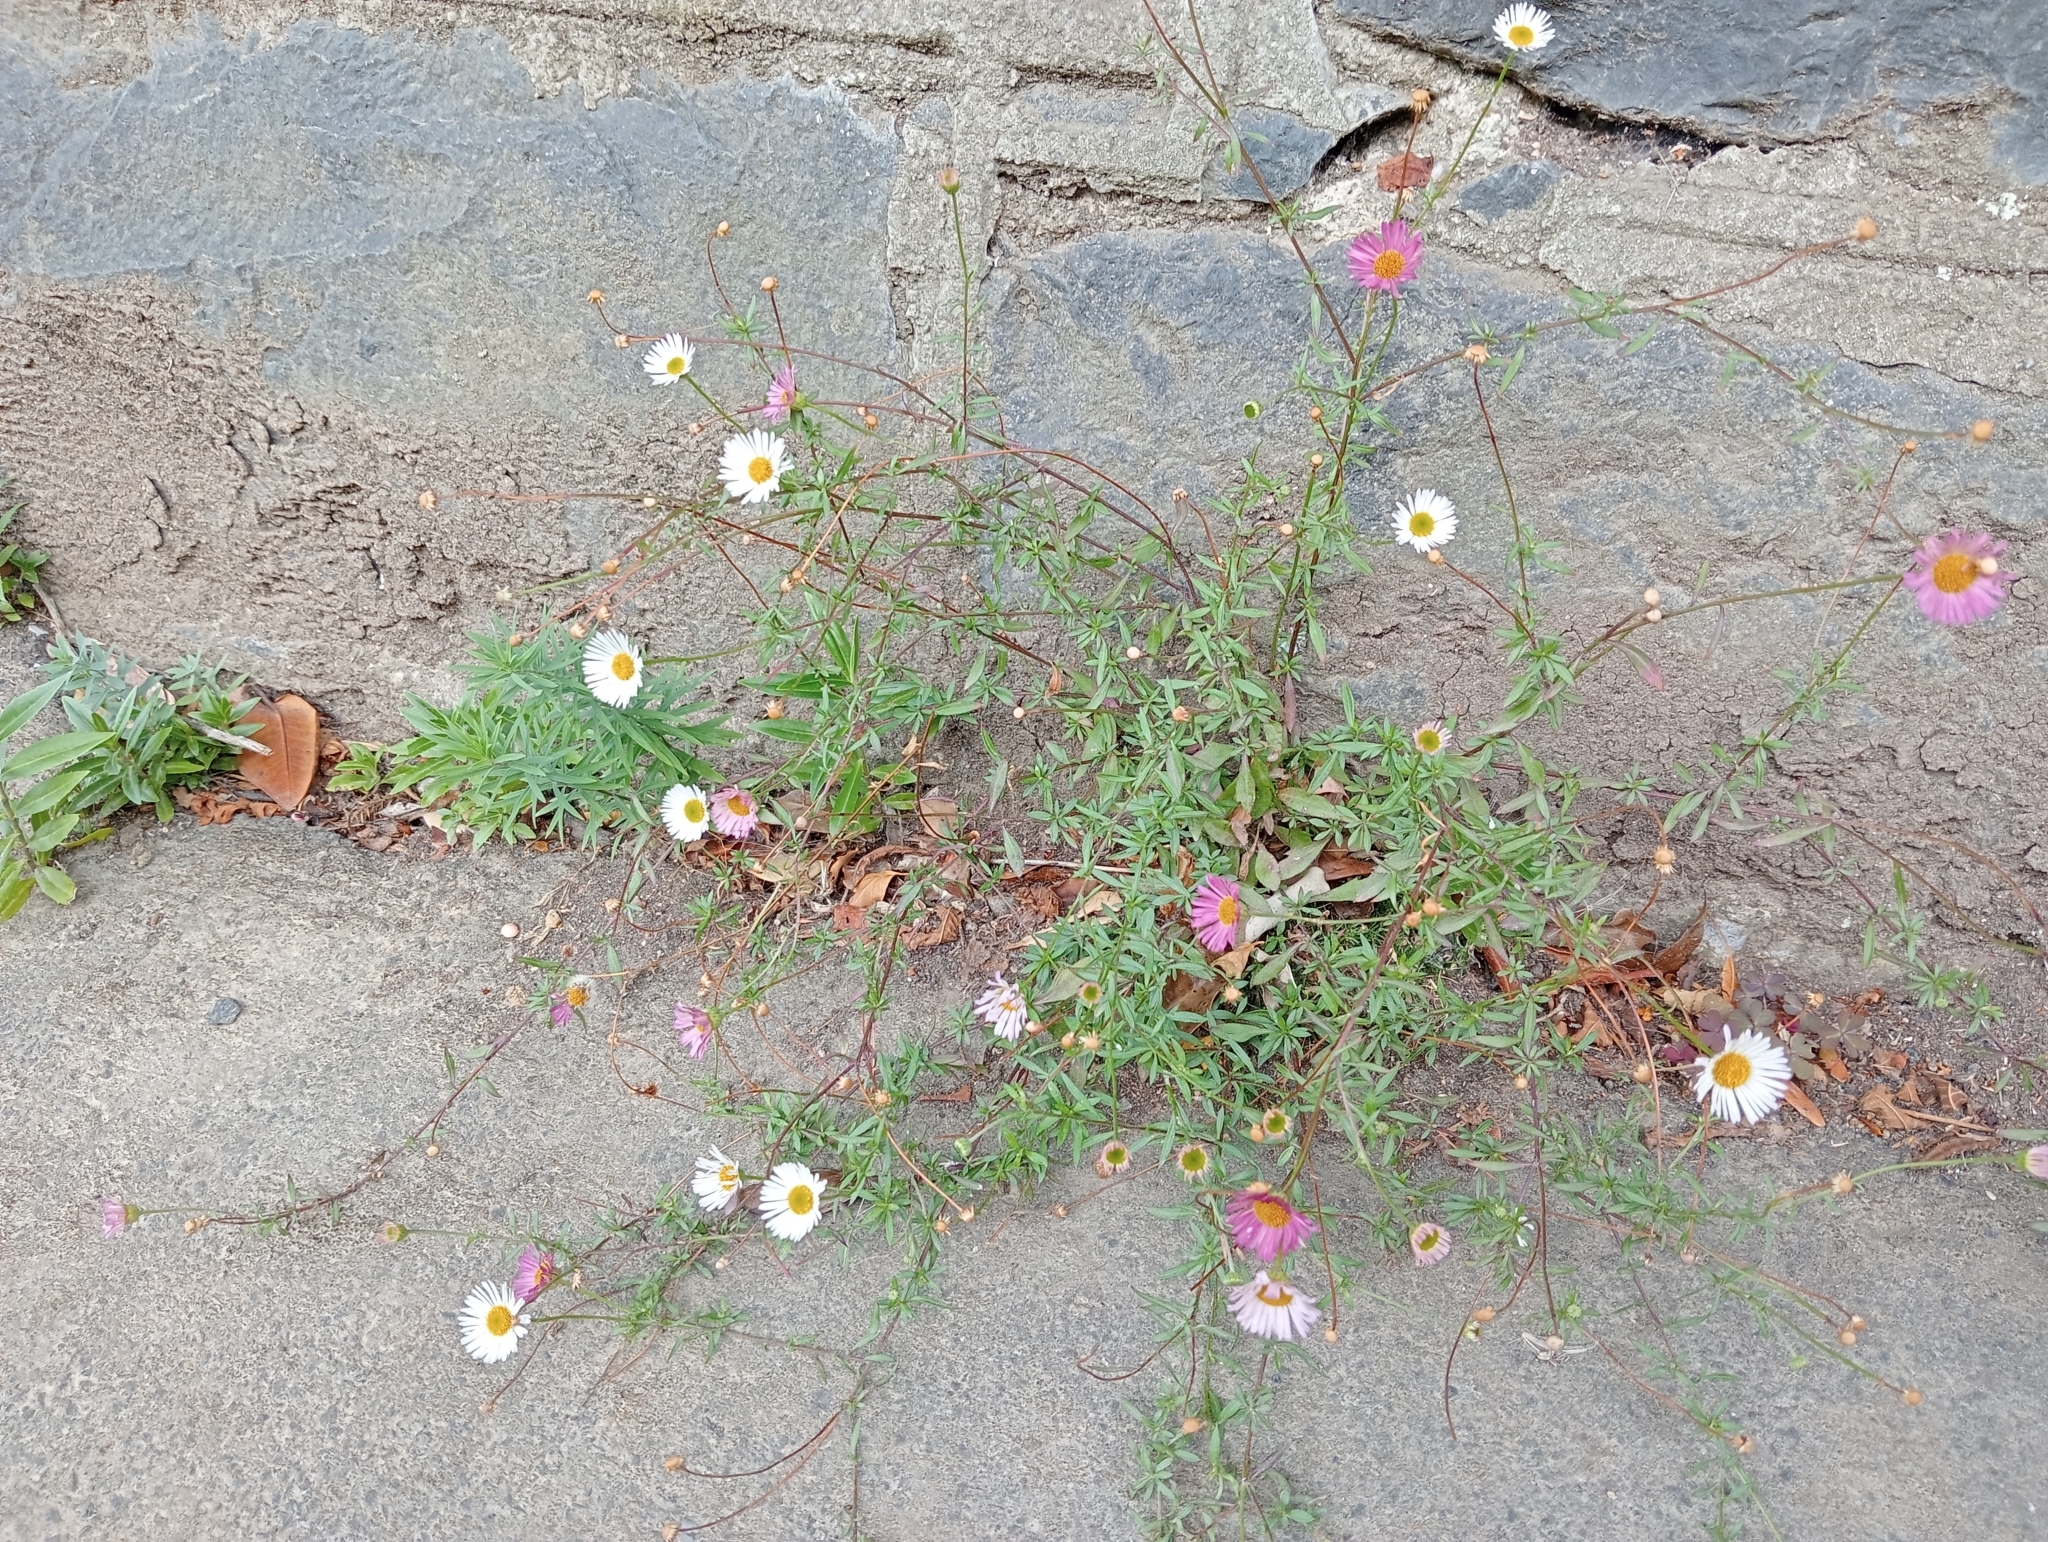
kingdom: Plantae
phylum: Tracheophyta
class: Magnoliopsida
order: Asterales
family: Asteraceae
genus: Erigeron
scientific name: Erigeron karvinskianus
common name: Mexican fleabane
